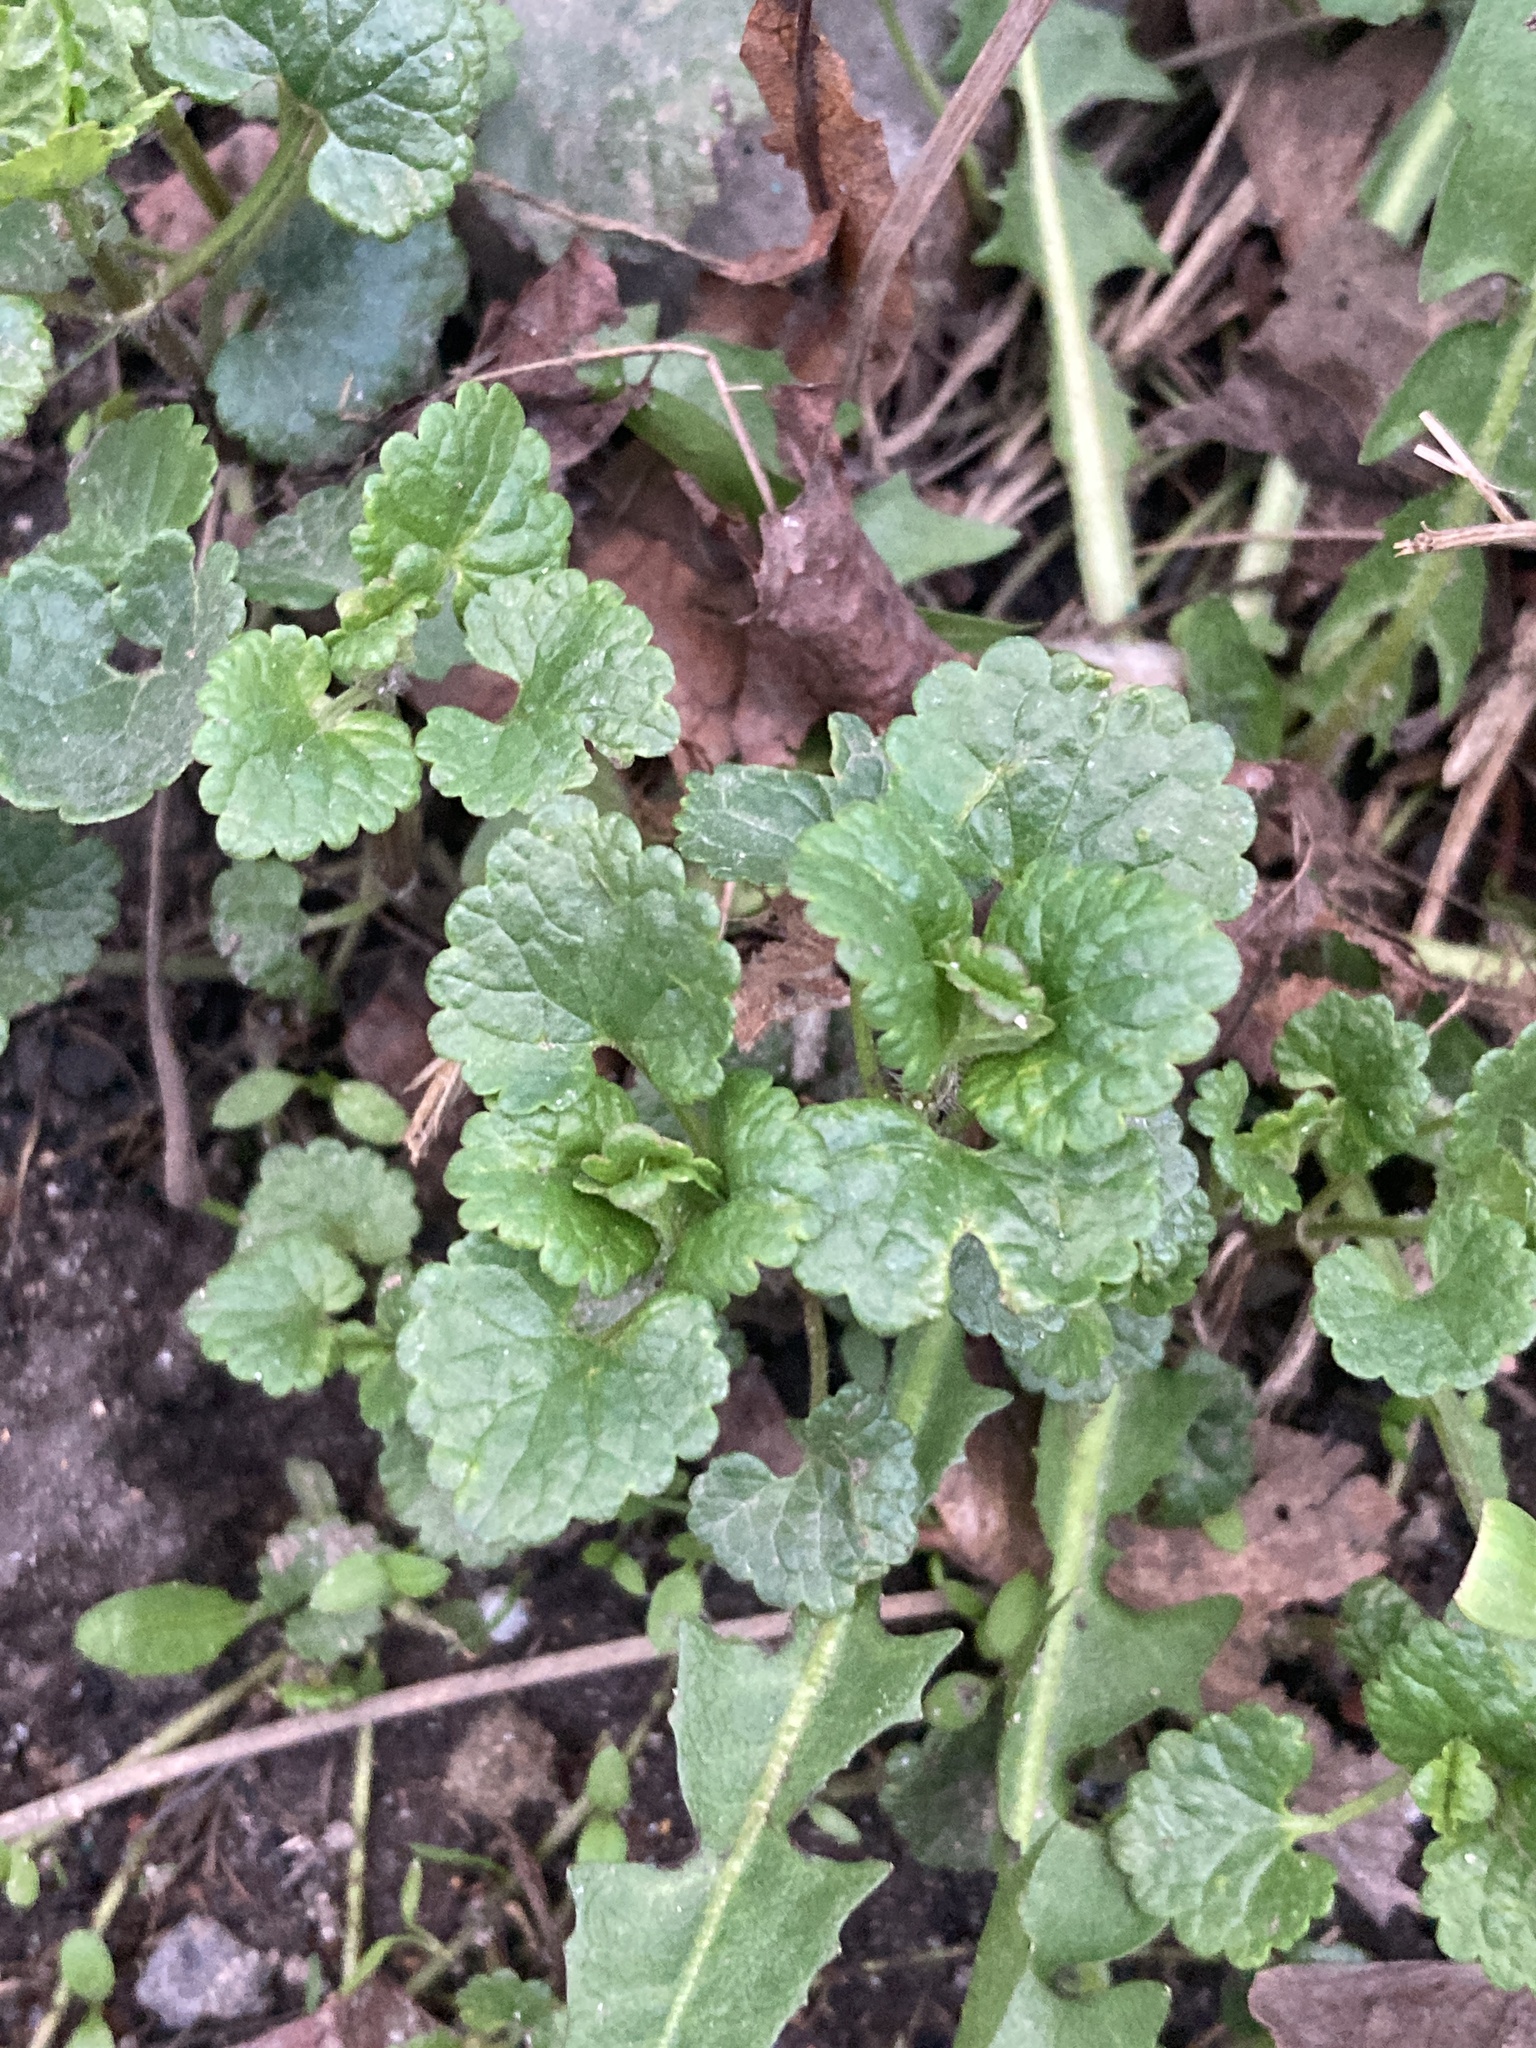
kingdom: Plantae
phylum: Tracheophyta
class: Magnoliopsida
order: Lamiales
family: Lamiaceae
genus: Glechoma
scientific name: Glechoma hederacea
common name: Ground ivy
